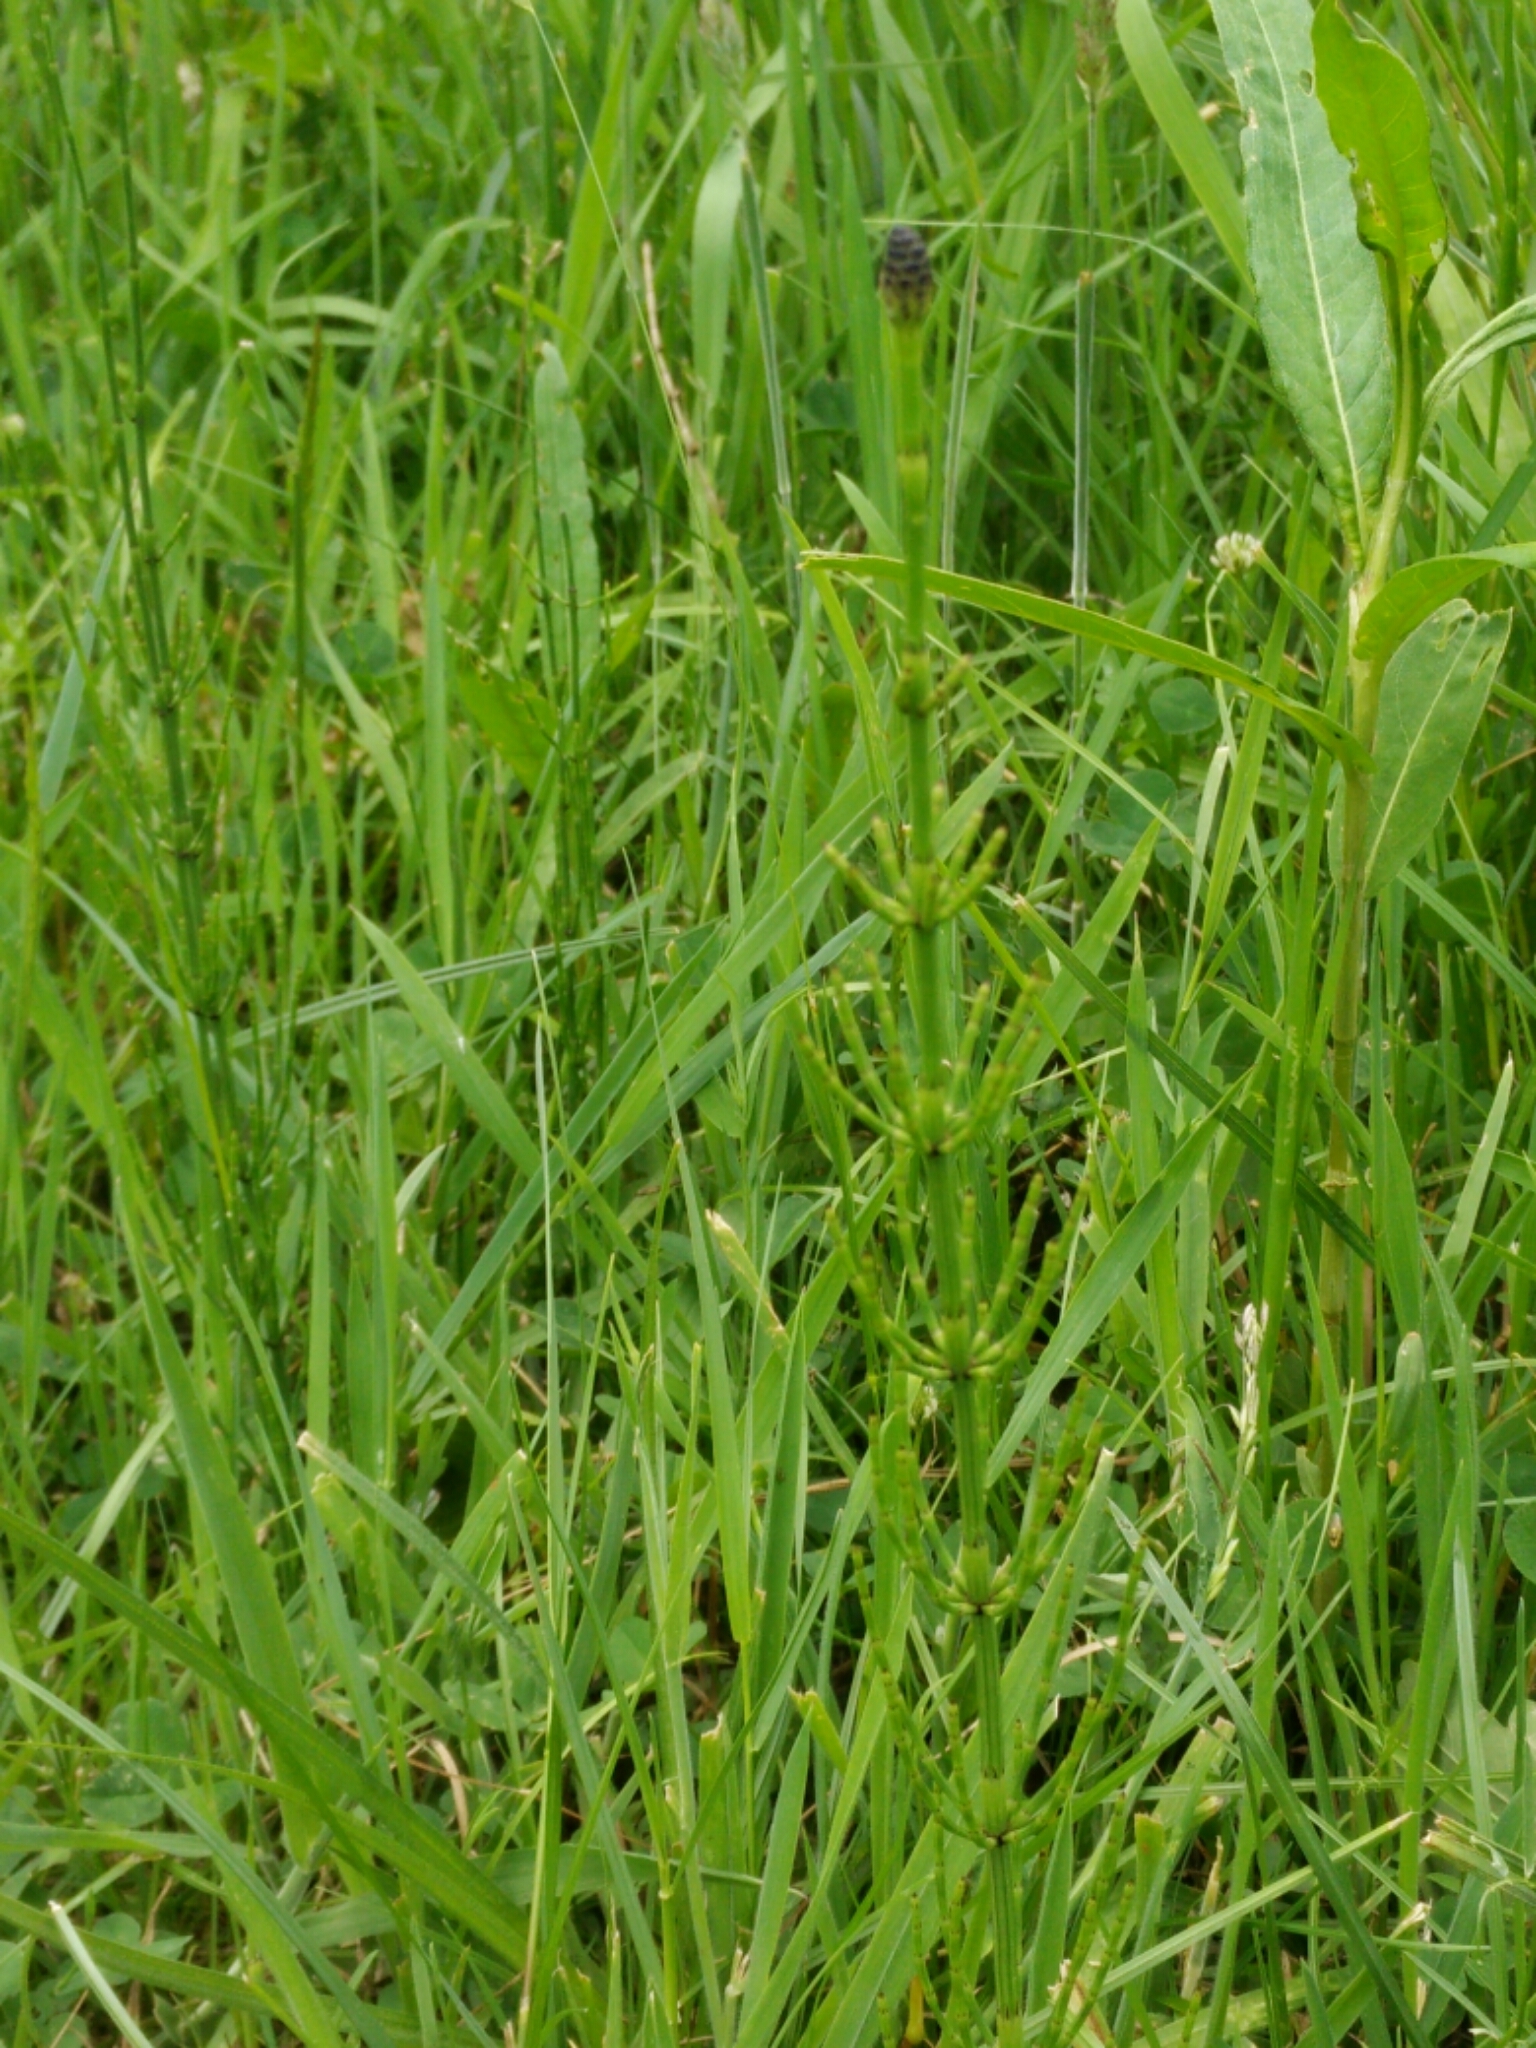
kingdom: Plantae
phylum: Tracheophyta
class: Polypodiopsida
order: Equisetales
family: Equisetaceae
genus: Equisetum
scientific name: Equisetum palustre
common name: Marsh horsetail
